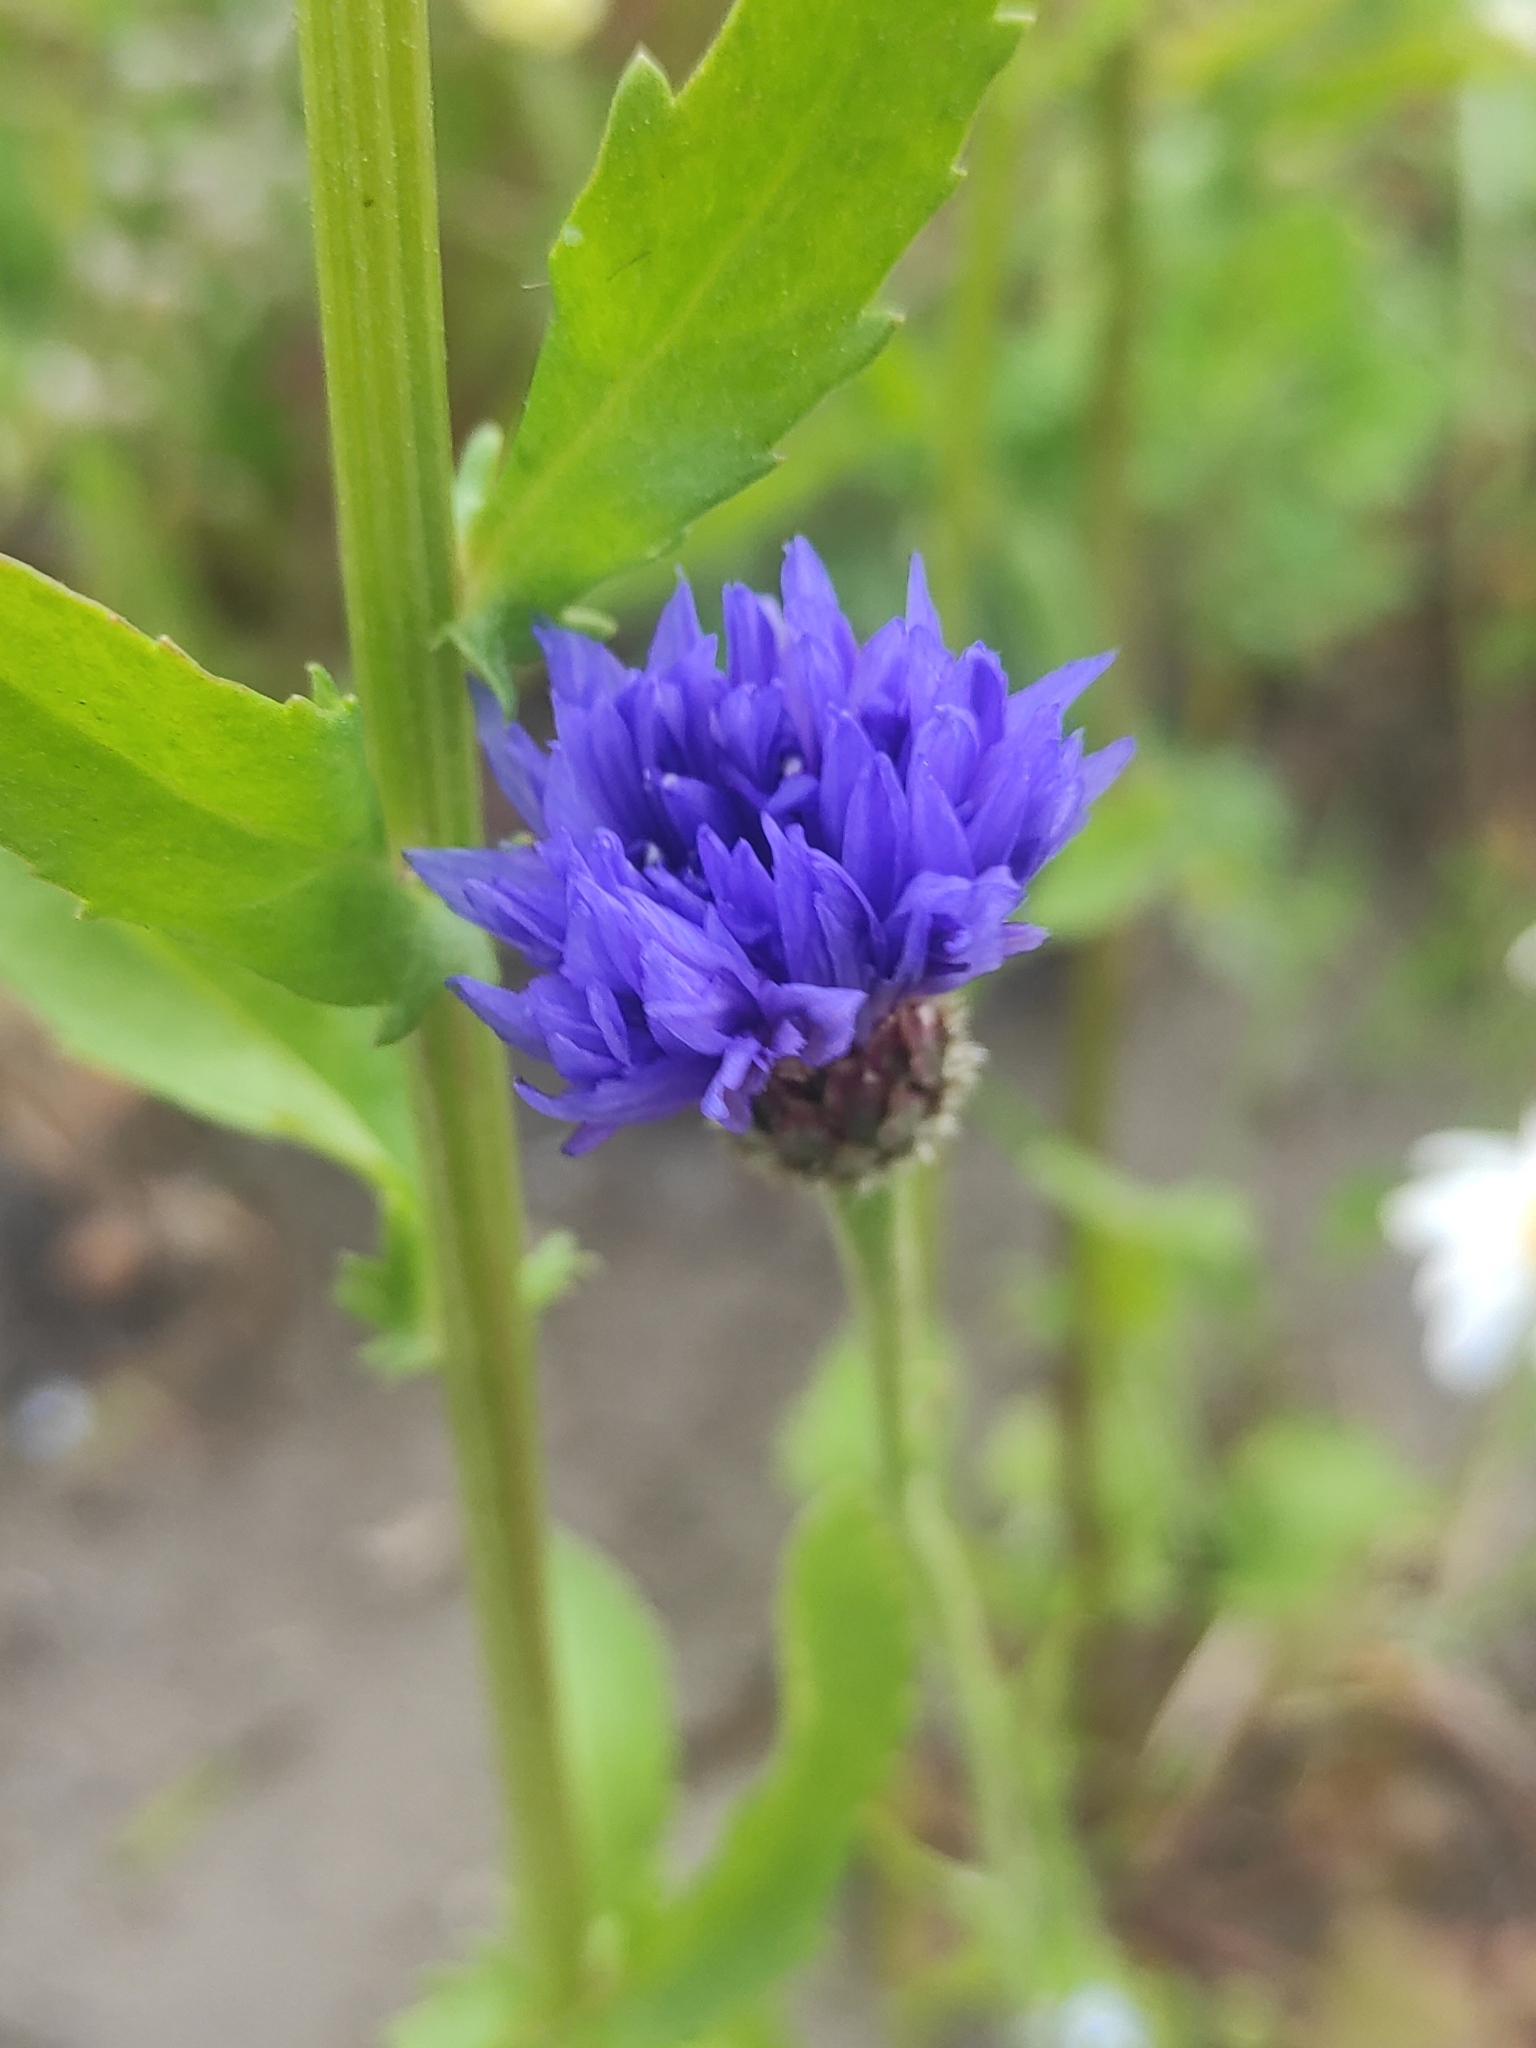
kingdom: Plantae
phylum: Tracheophyta
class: Magnoliopsida
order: Asterales
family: Asteraceae
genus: Centaurea
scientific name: Centaurea cyanus
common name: Cornflower
